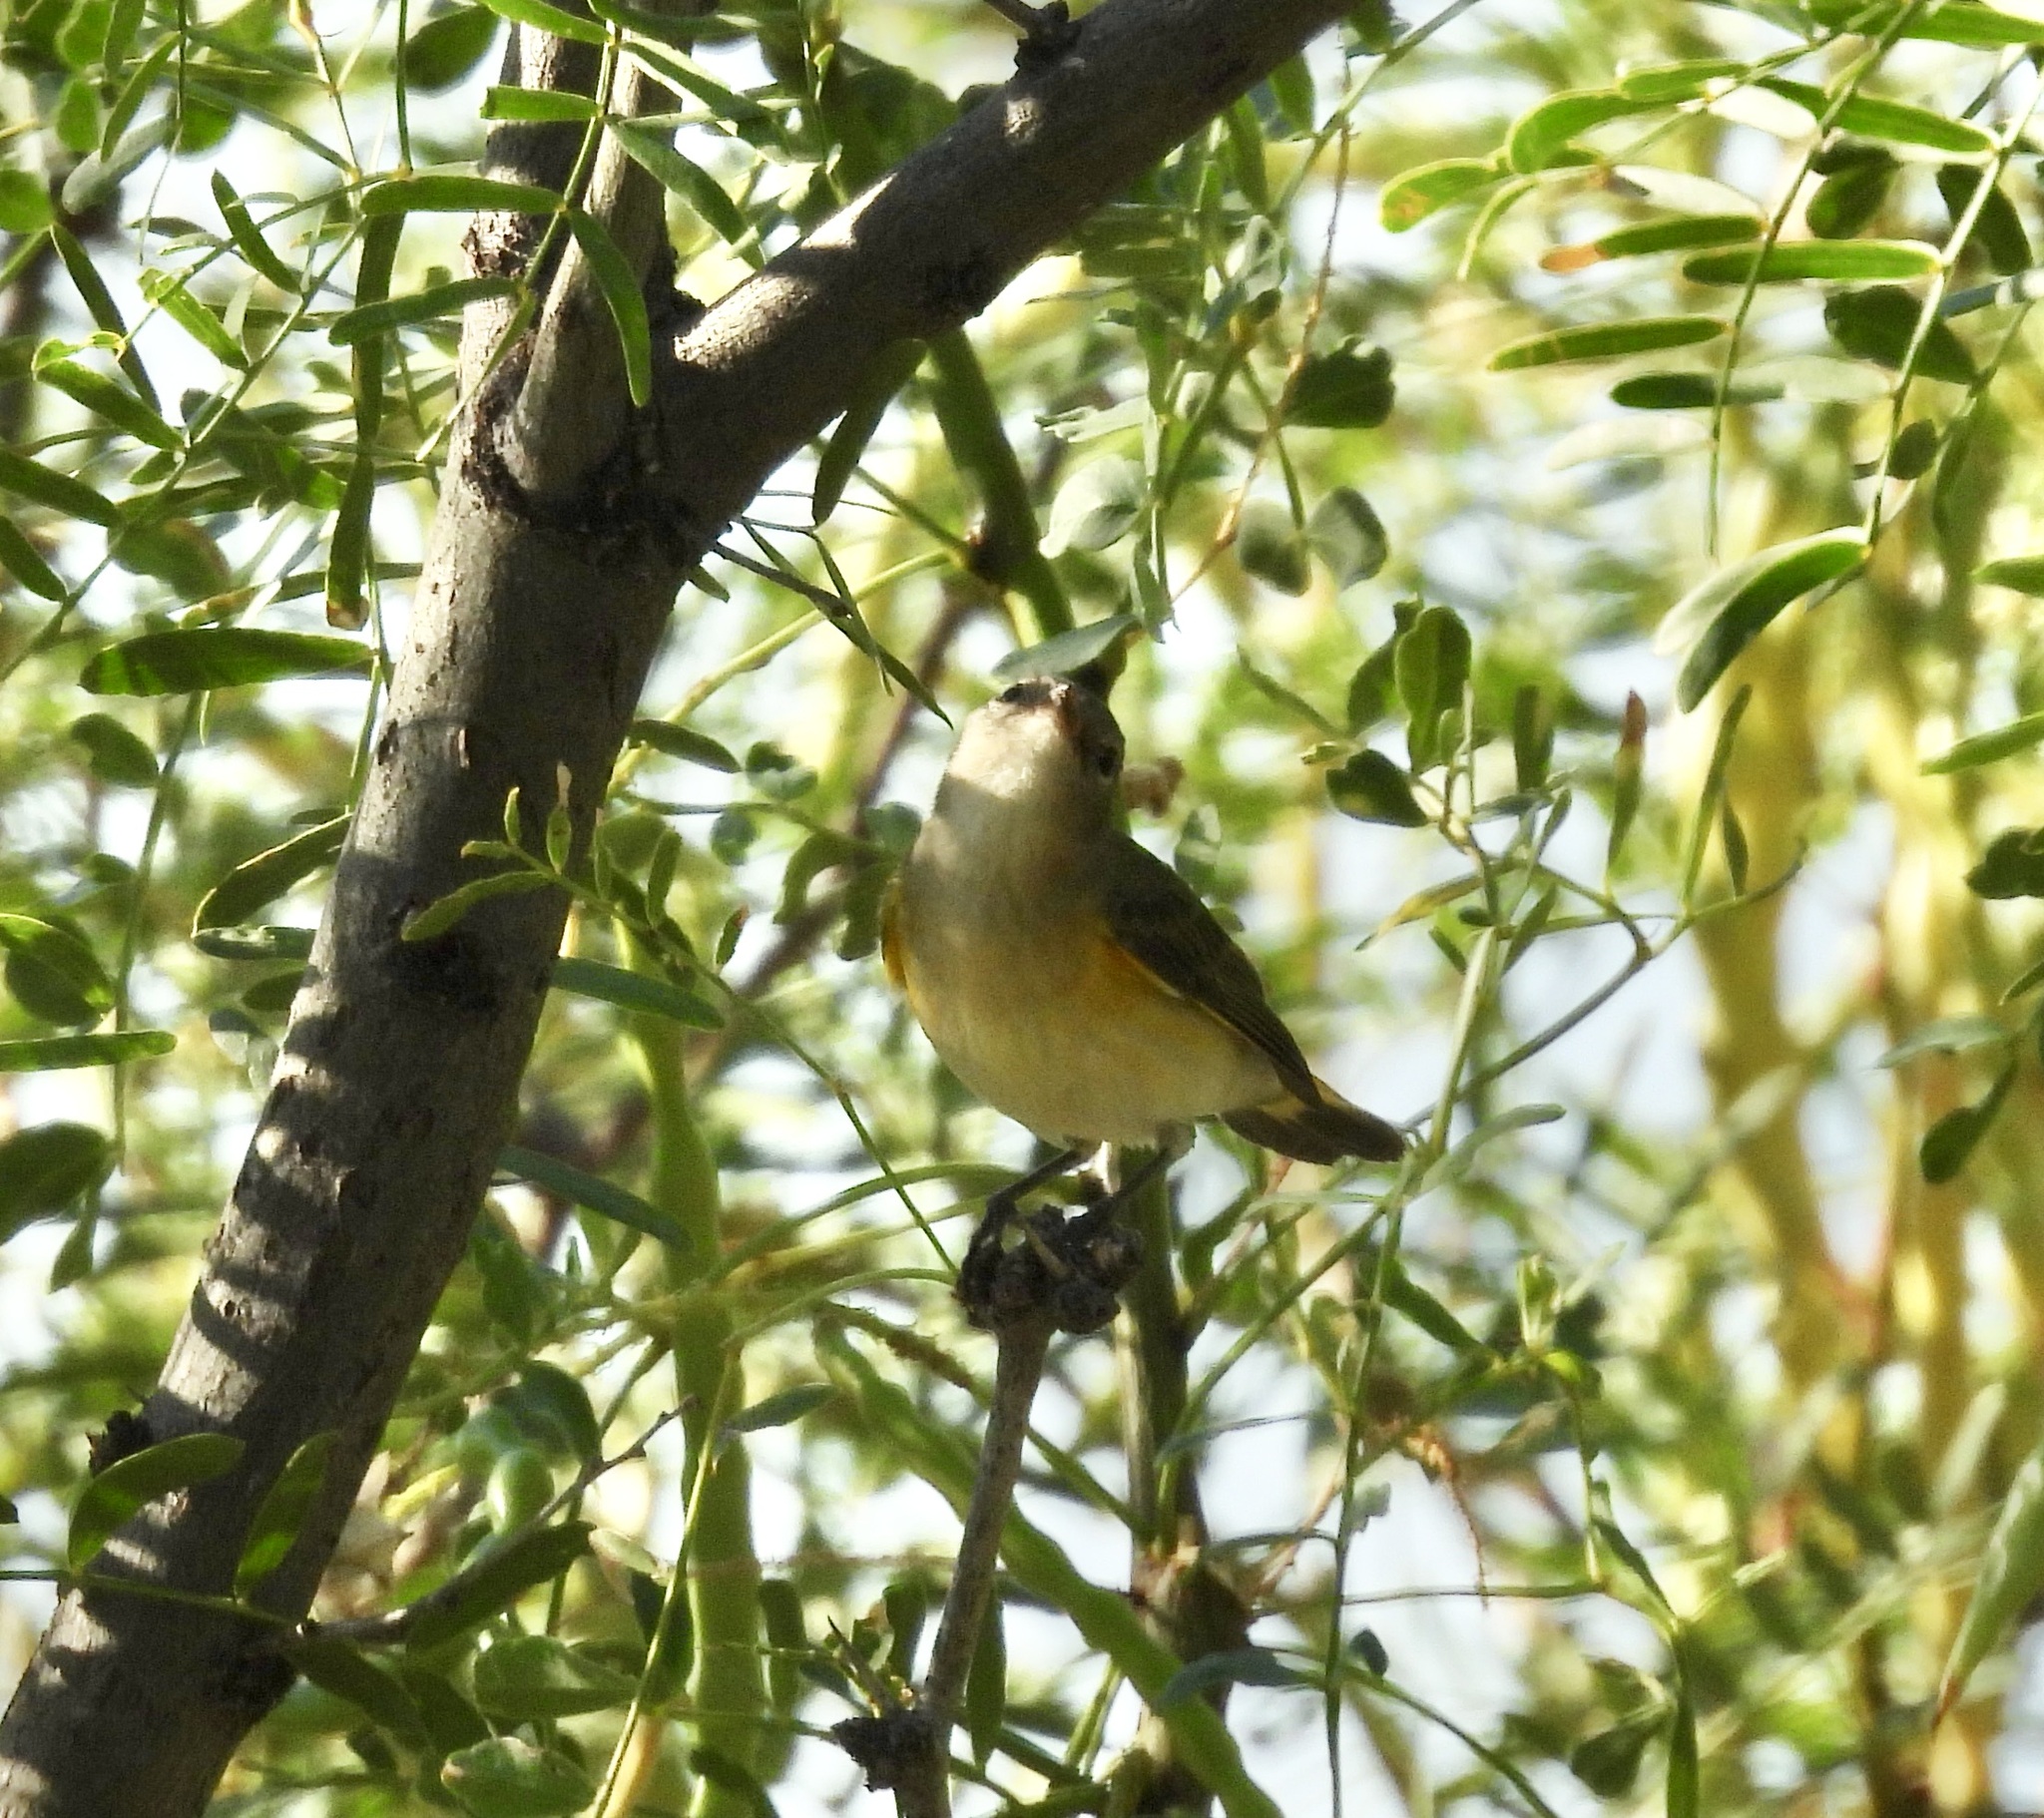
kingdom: Animalia
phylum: Chordata
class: Aves
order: Passeriformes
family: Parulidae
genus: Setophaga
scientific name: Setophaga ruticilla
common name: American redstart
